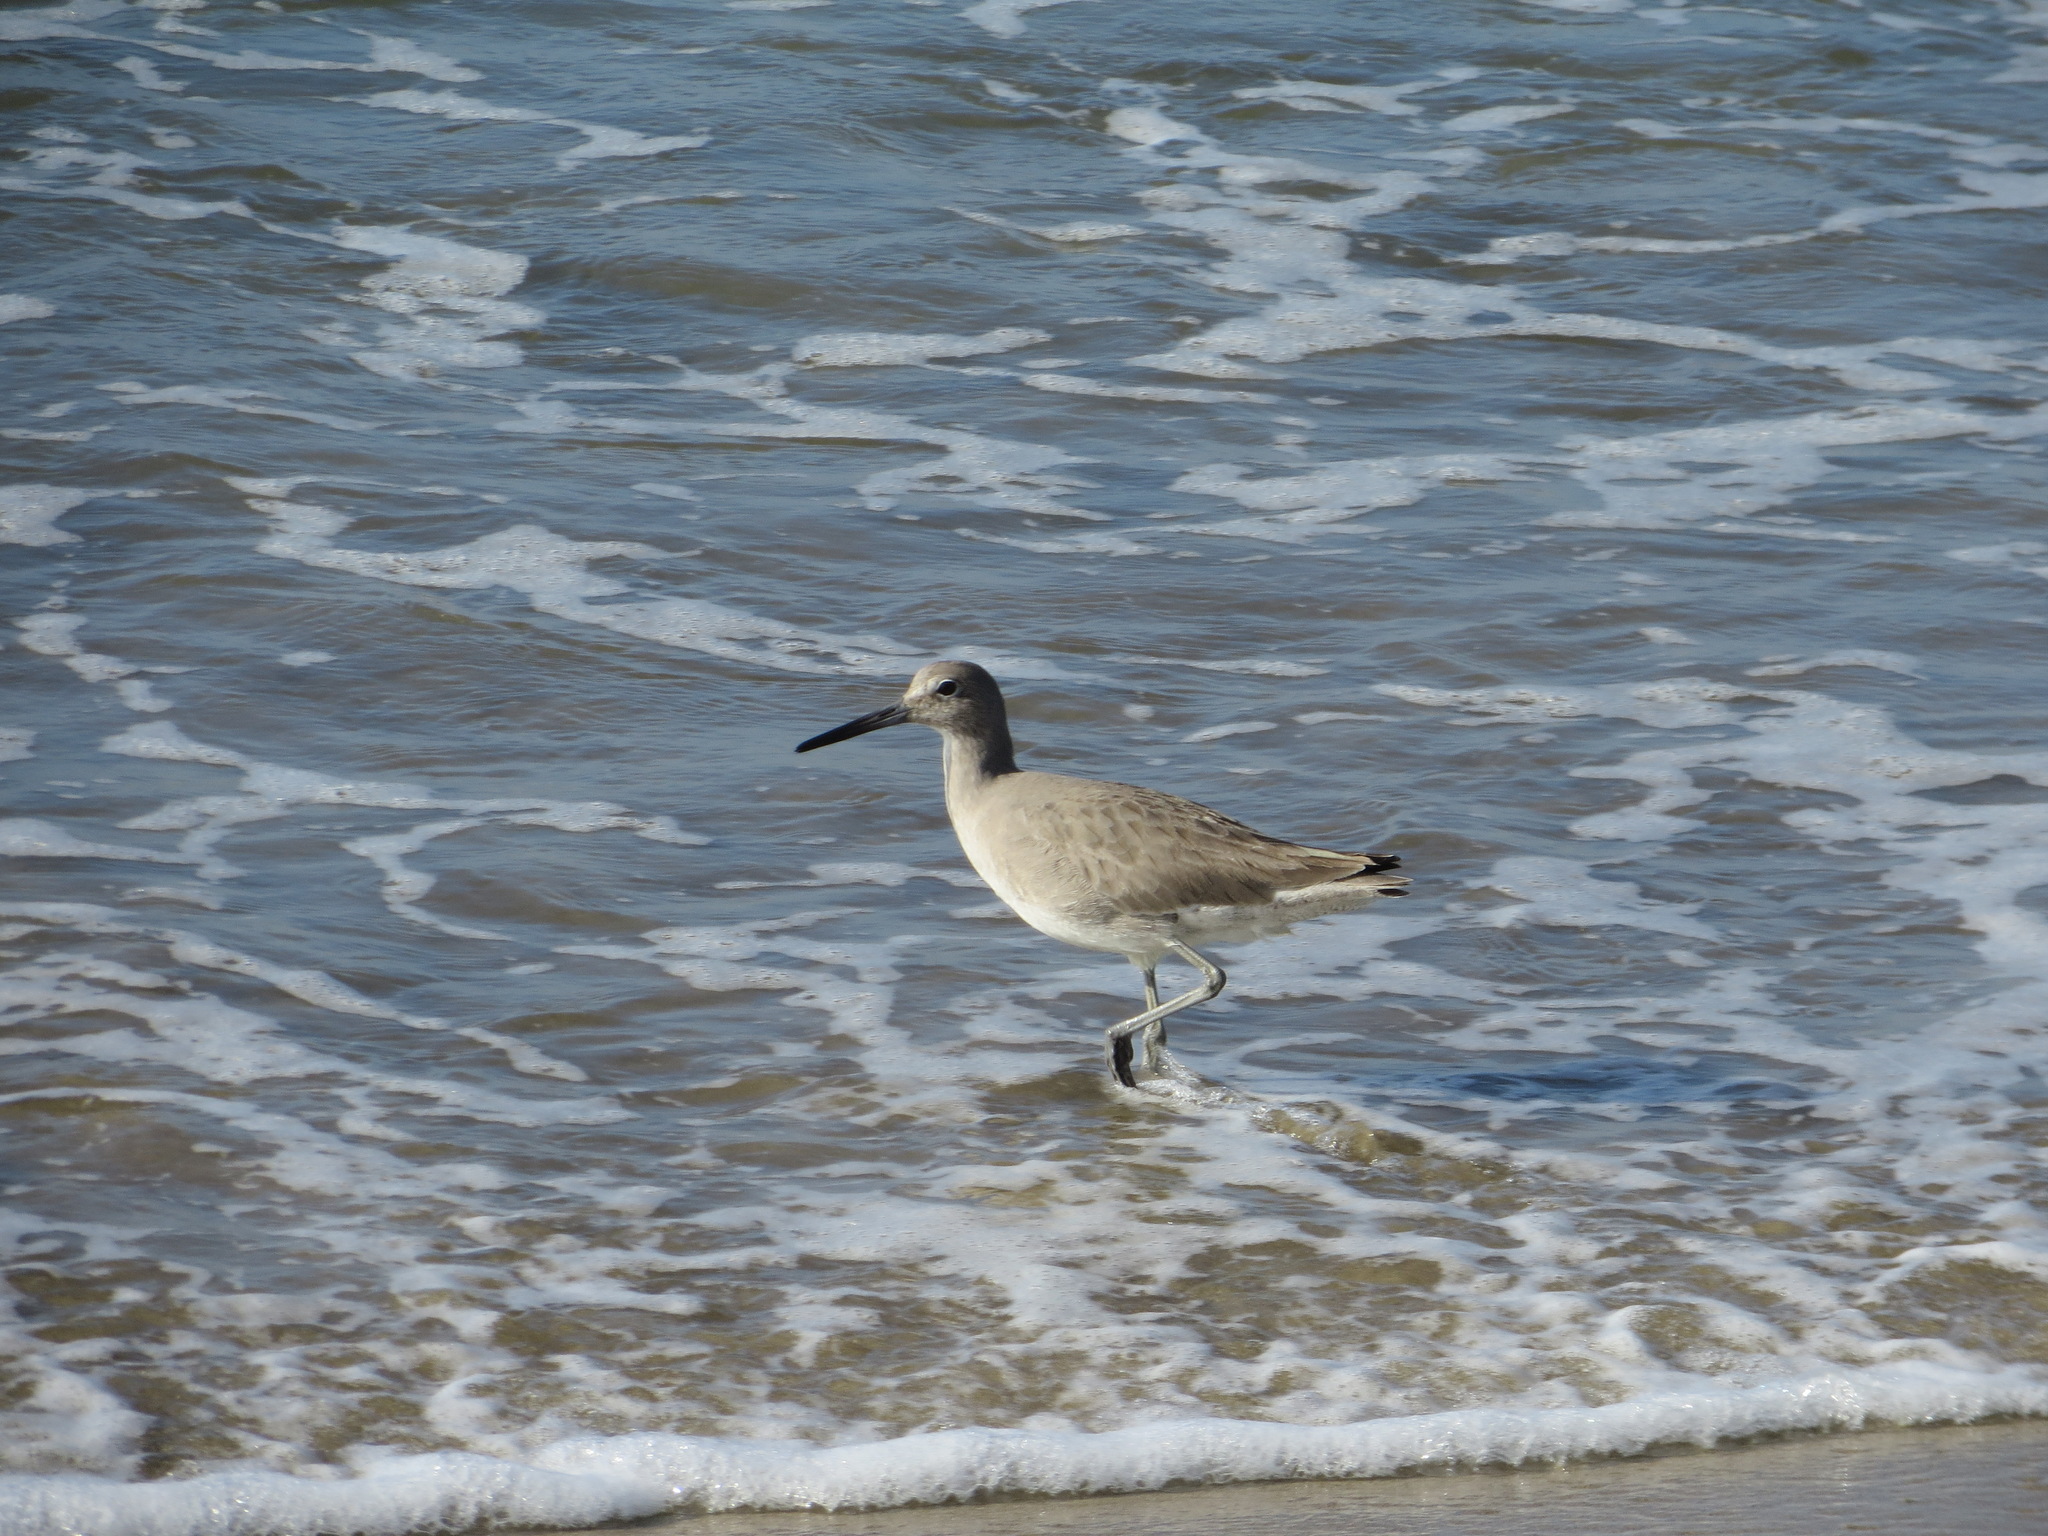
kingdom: Animalia
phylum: Chordata
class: Aves
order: Charadriiformes
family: Scolopacidae
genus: Tringa
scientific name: Tringa semipalmata
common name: Willet
